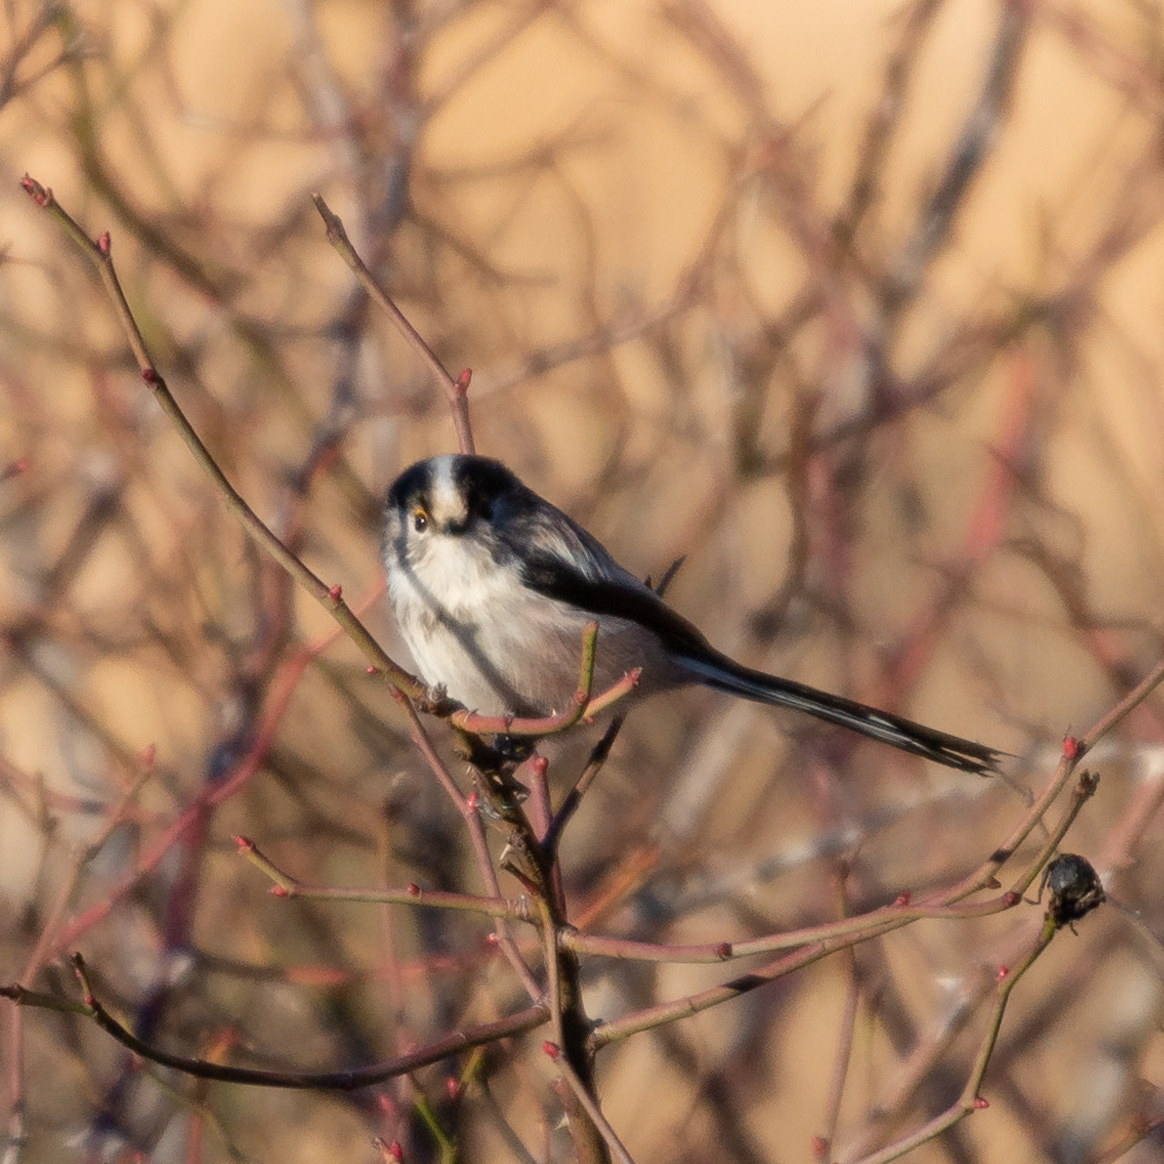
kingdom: Animalia
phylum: Chordata
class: Aves
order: Passeriformes
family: Aegithalidae
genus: Aegithalos
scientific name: Aegithalos caudatus
